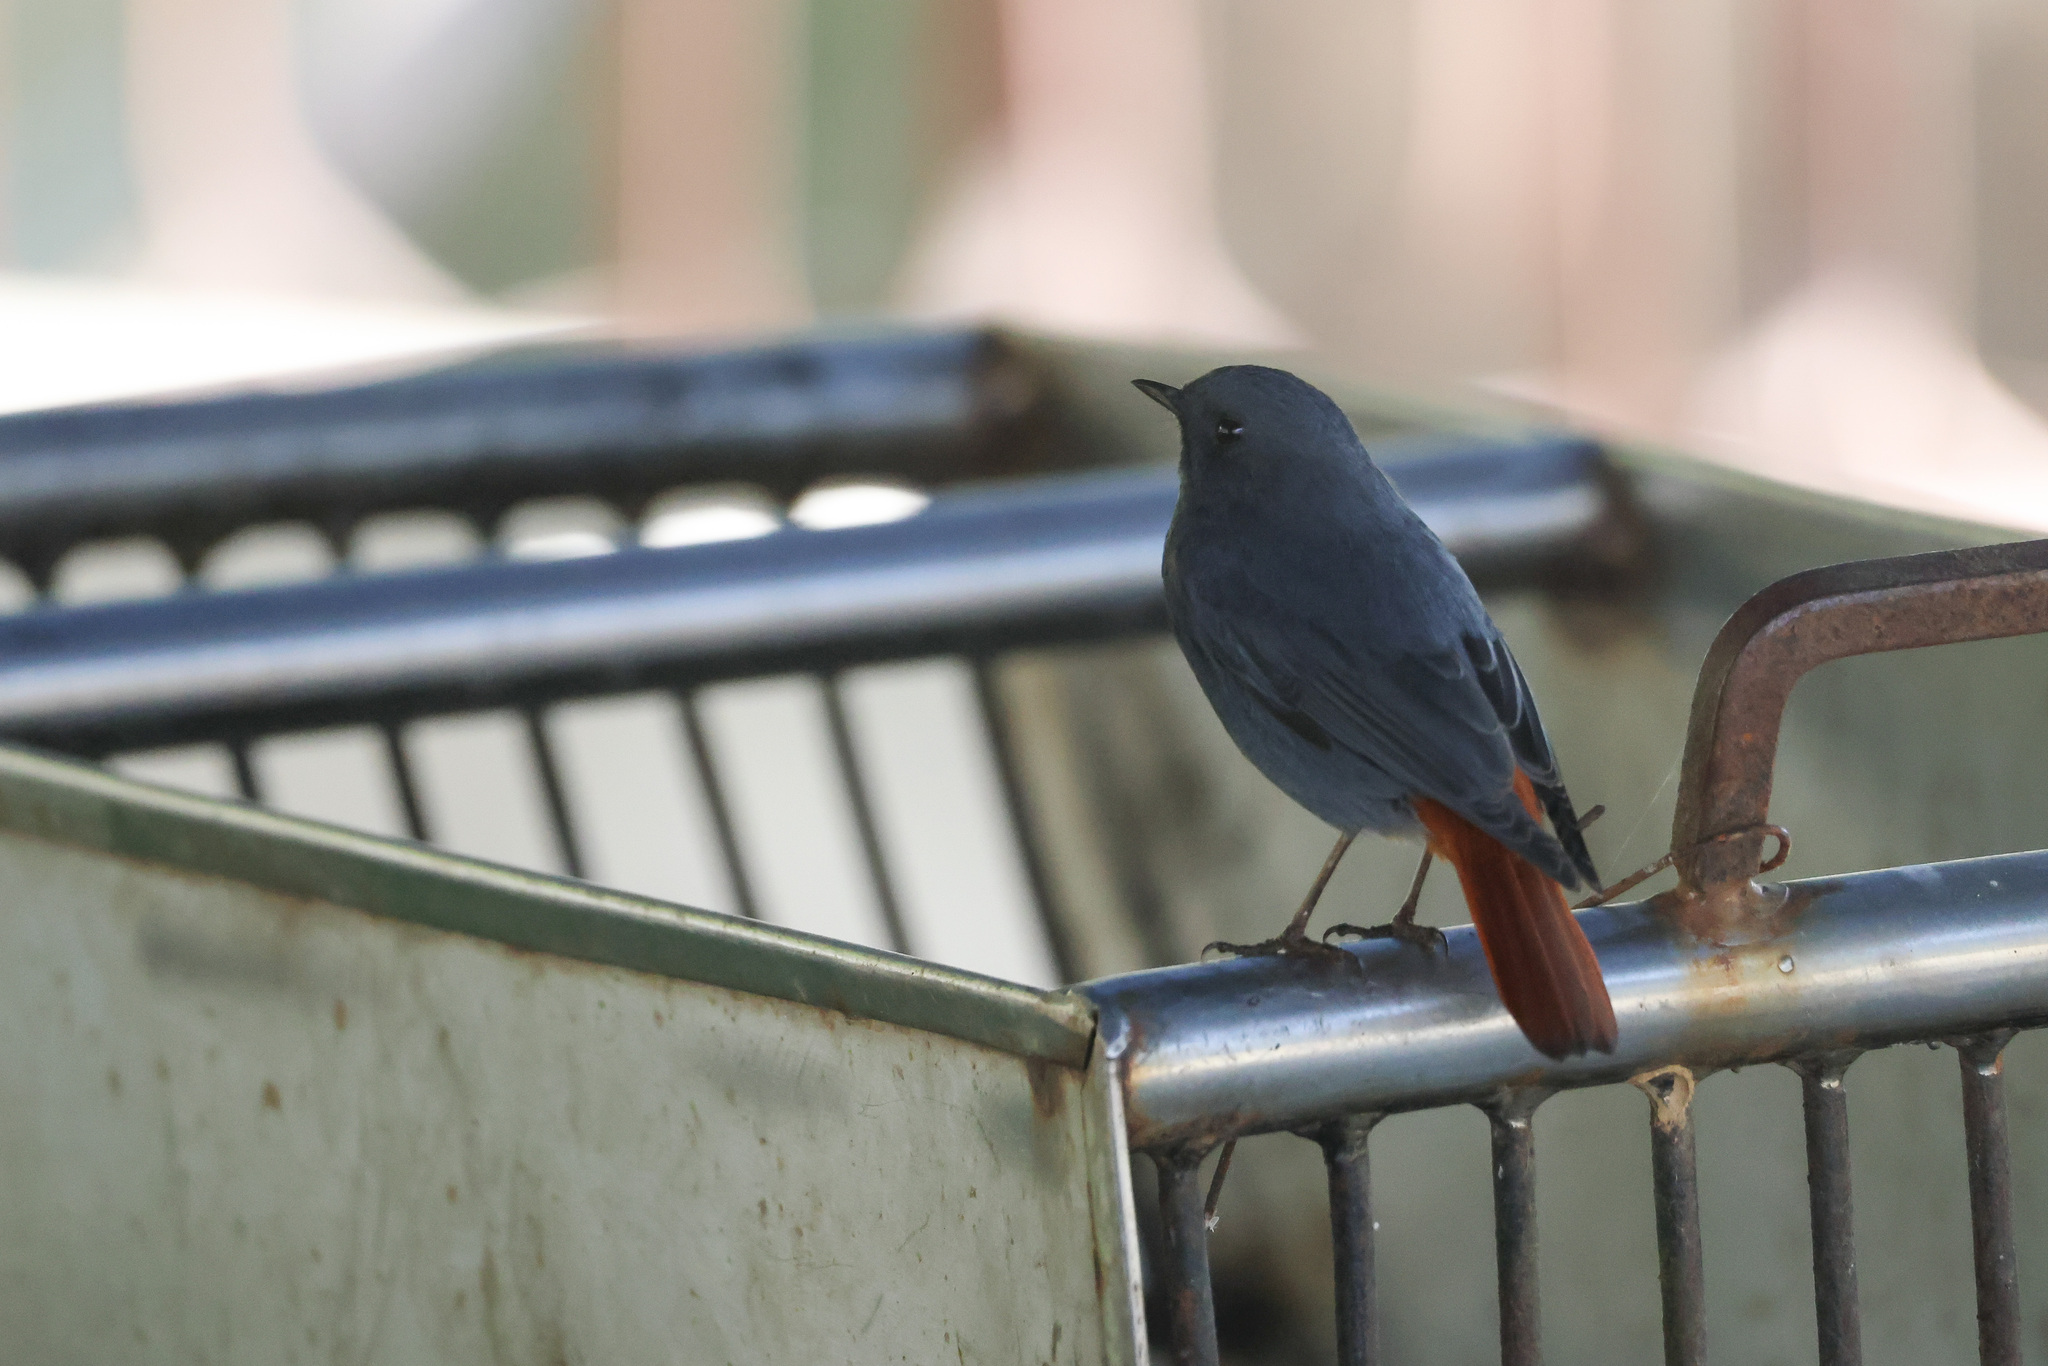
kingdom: Animalia
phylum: Chordata
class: Aves
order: Passeriformes
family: Muscicapidae
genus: Phoenicurus
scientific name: Phoenicurus fuliginosus
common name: Plumbeous water redstart
